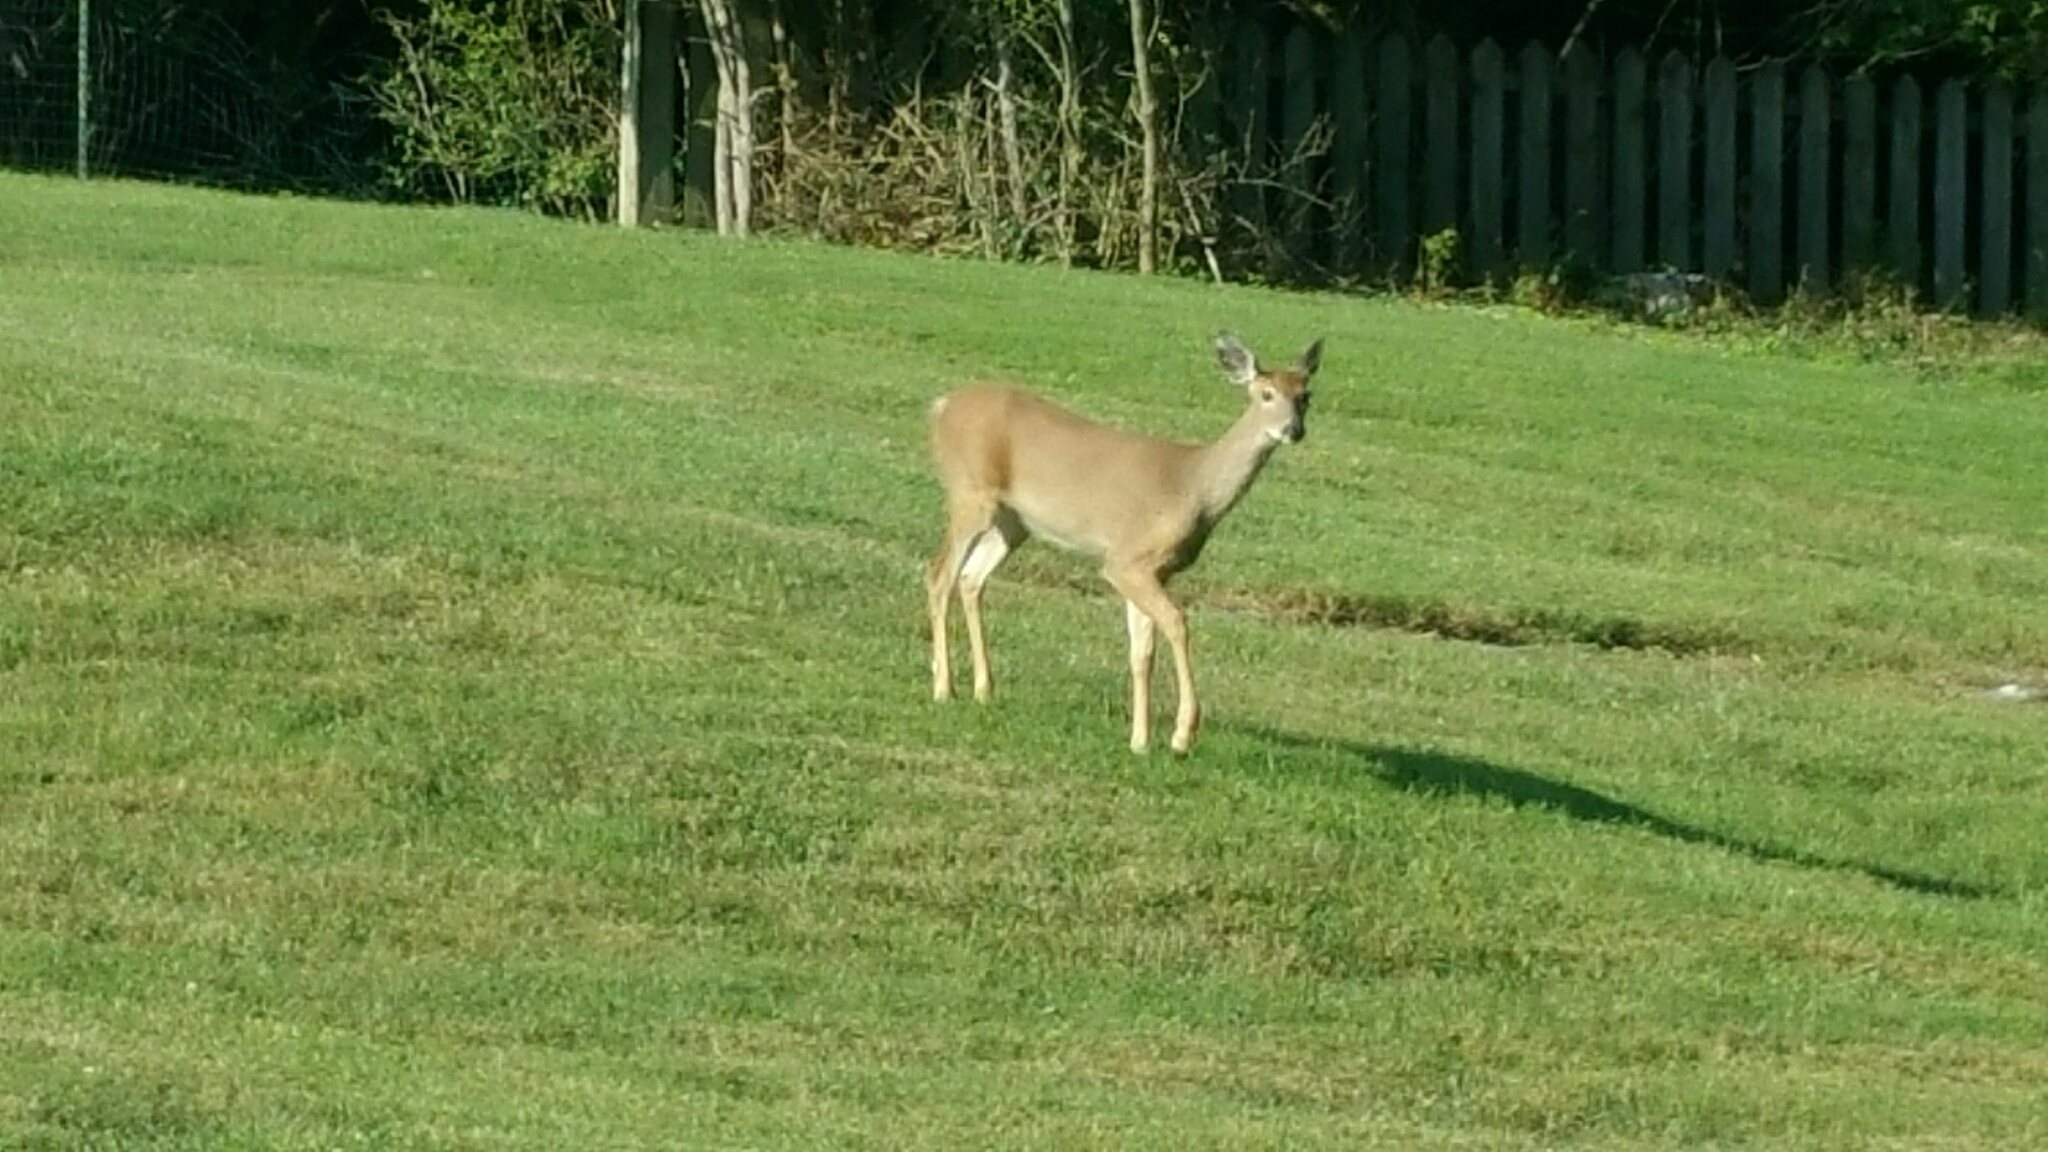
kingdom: Animalia
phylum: Chordata
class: Mammalia
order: Artiodactyla
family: Cervidae
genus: Odocoileus
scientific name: Odocoileus virginianus
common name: White-tailed deer
